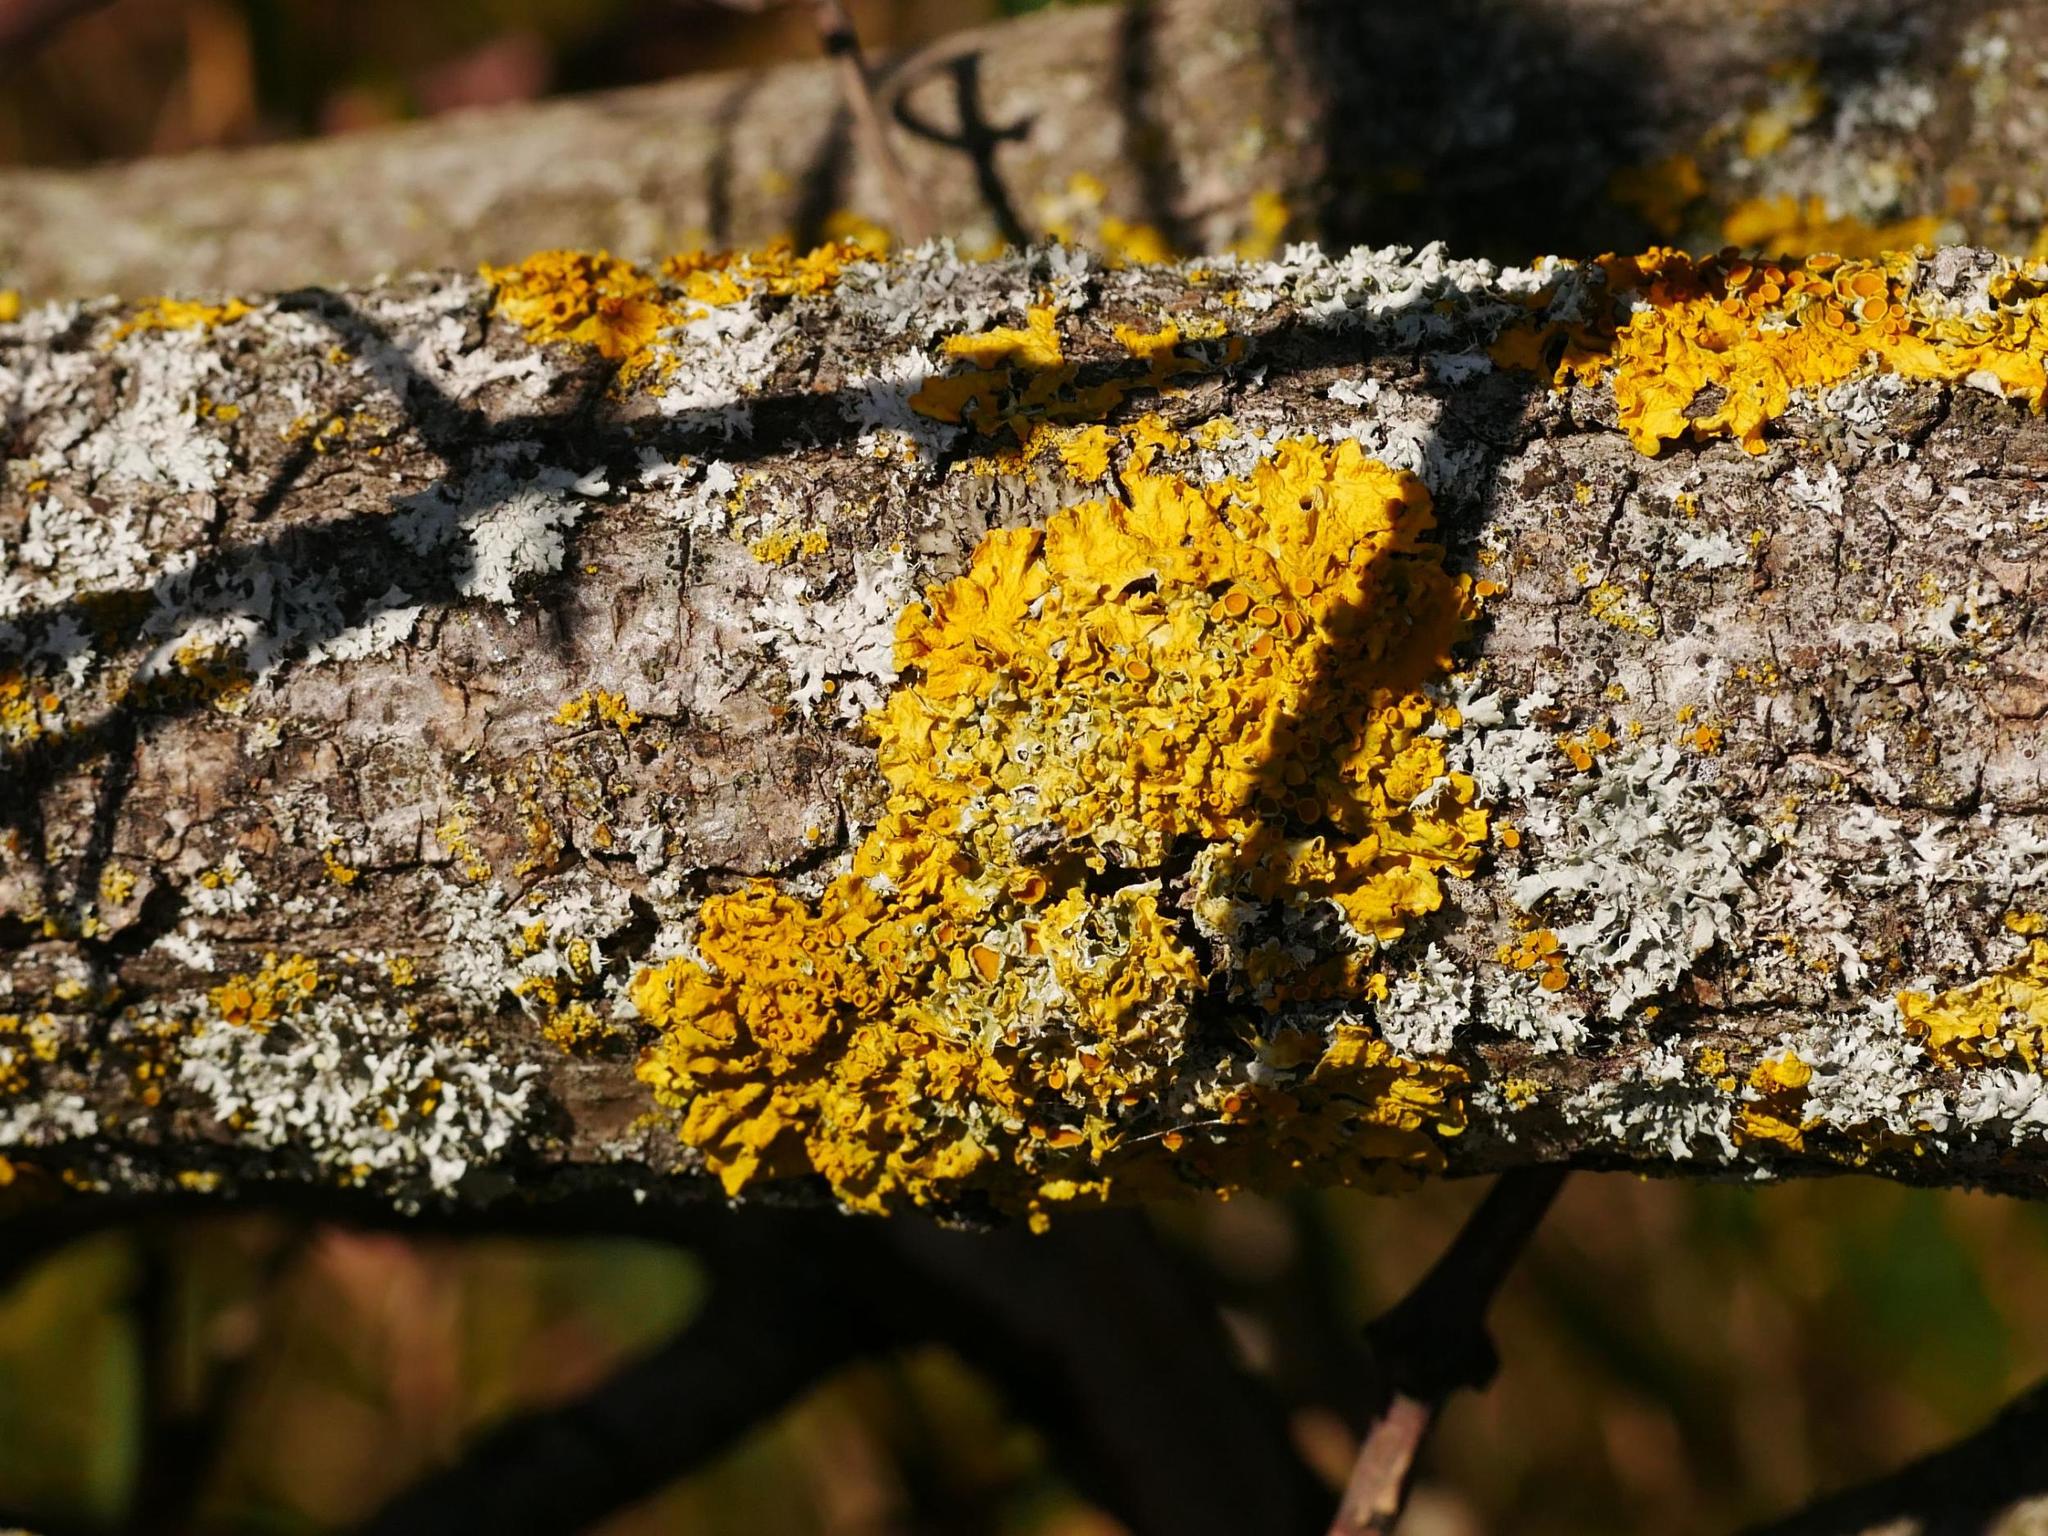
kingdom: Fungi
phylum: Ascomycota
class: Lecanoromycetes
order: Teloschistales
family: Teloschistaceae
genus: Xanthoria
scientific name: Xanthoria parietina
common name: Common orange lichen
